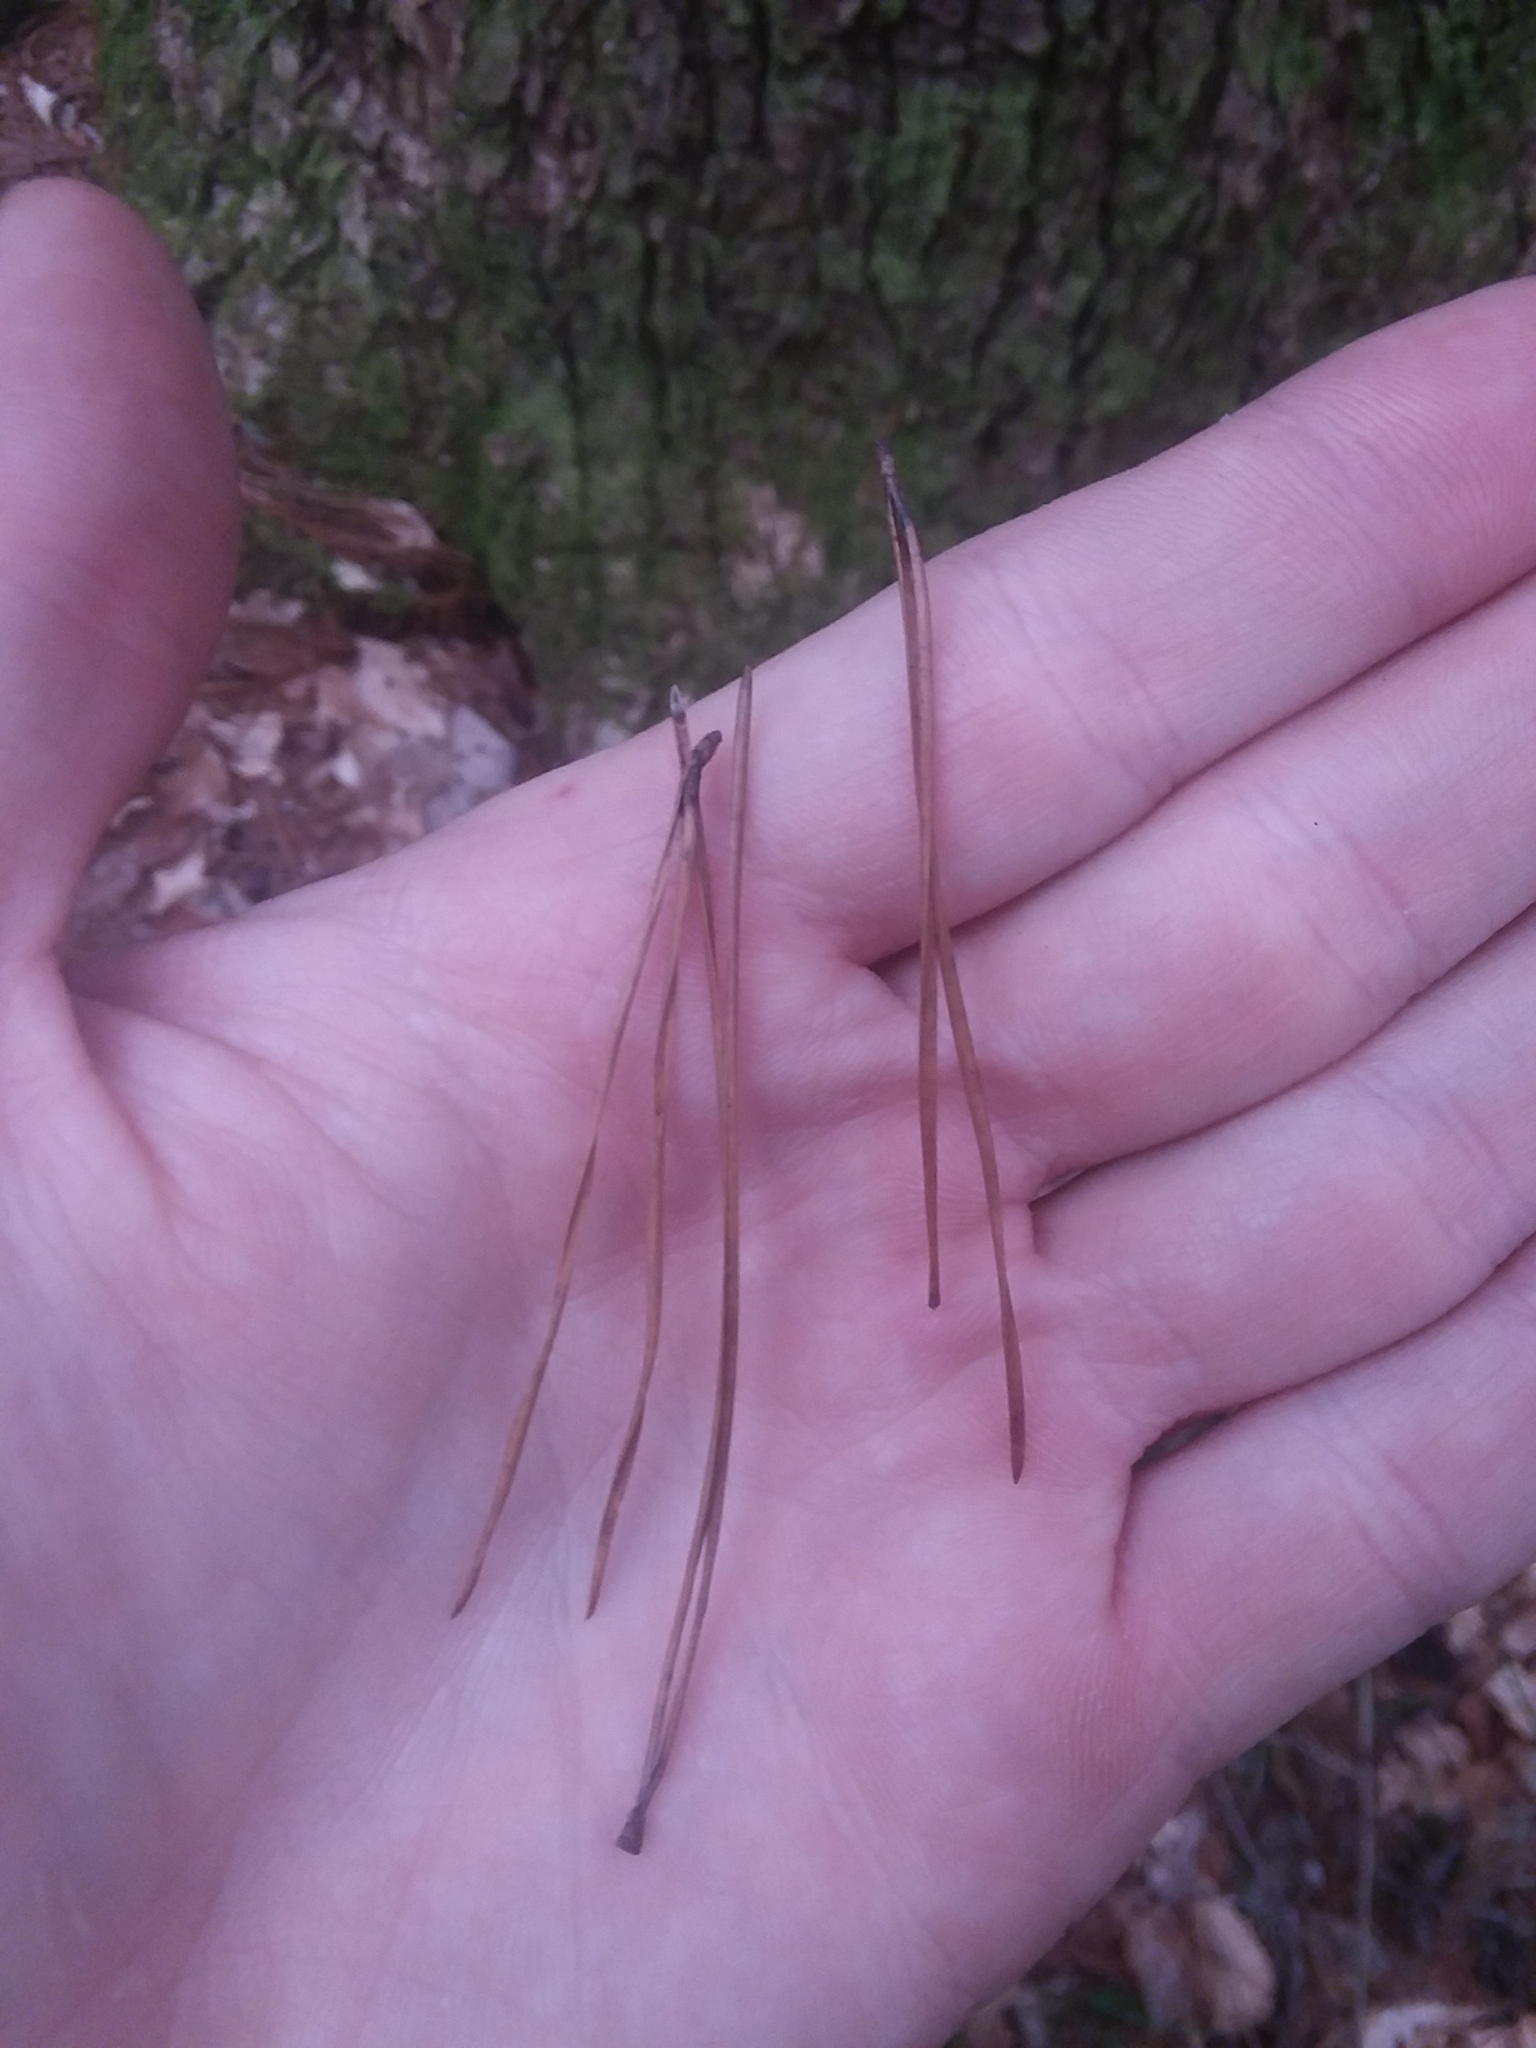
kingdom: Plantae
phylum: Tracheophyta
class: Pinopsida
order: Pinales
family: Pinaceae
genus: Pinus
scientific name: Pinus glabra
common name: Spruce pine
